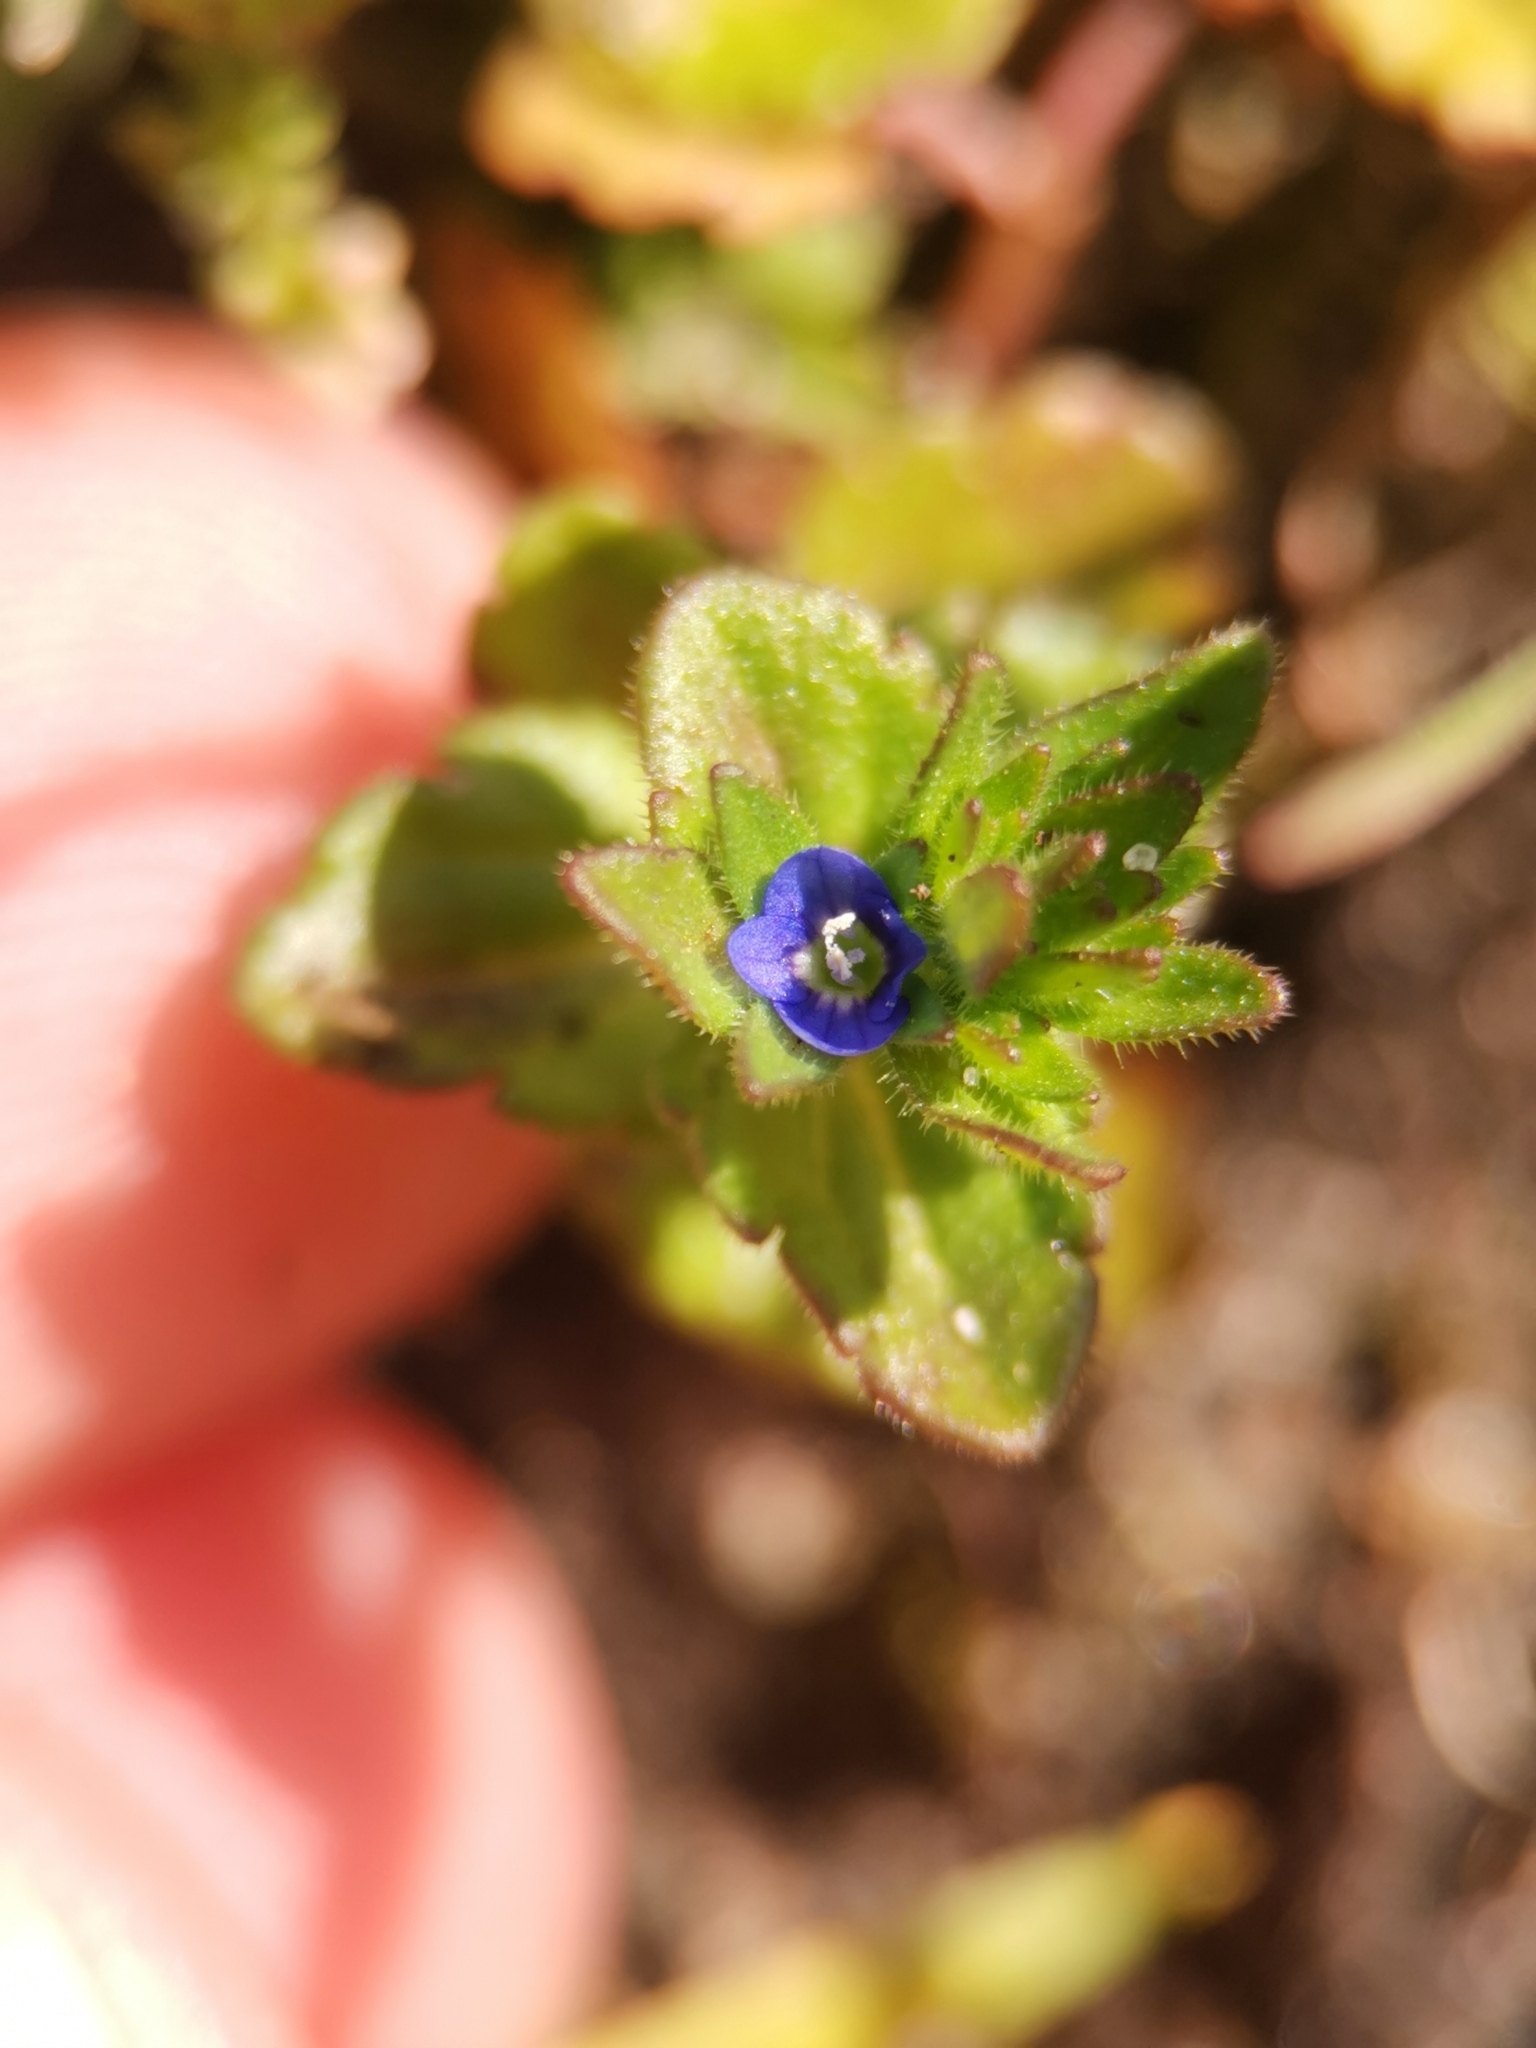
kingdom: Plantae
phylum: Tracheophyta
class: Magnoliopsida
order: Lamiales
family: Plantaginaceae
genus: Veronica
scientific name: Veronica arvensis
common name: Corn speedwell
